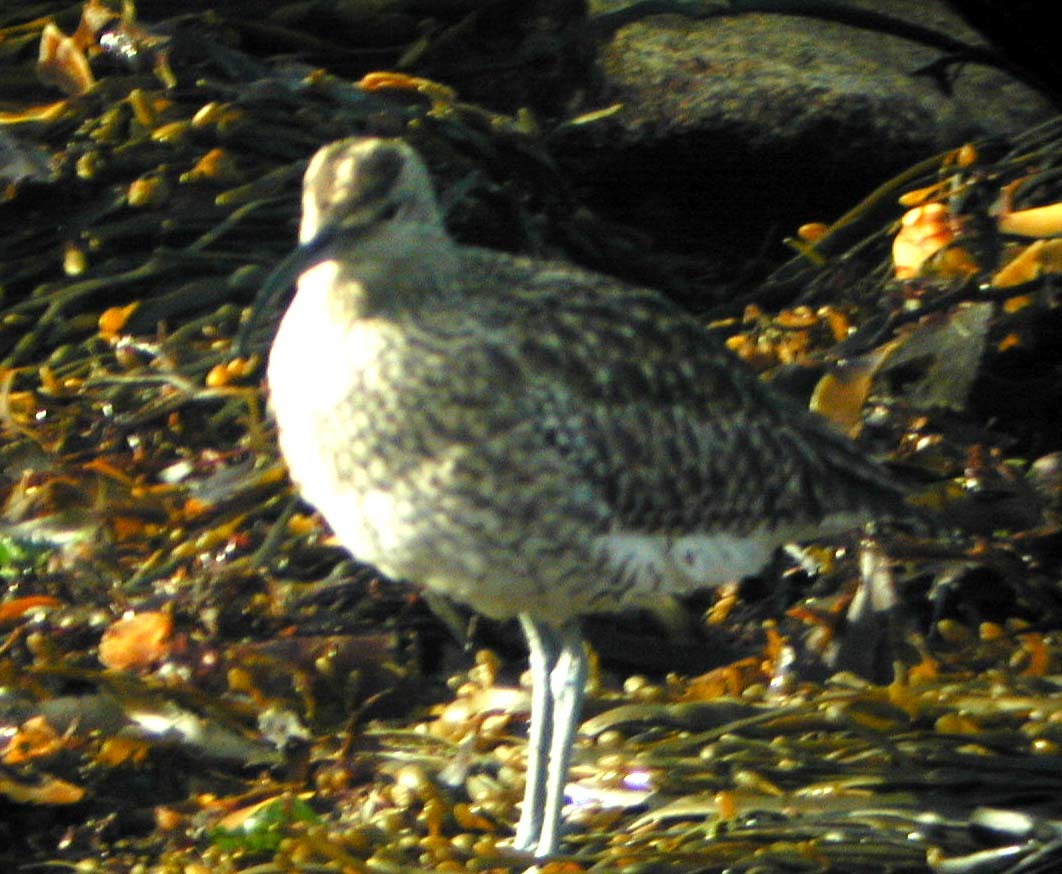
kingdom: Animalia
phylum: Chordata
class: Aves
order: Charadriiformes
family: Scolopacidae
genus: Numenius
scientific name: Numenius phaeopus
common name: Whimbrel
